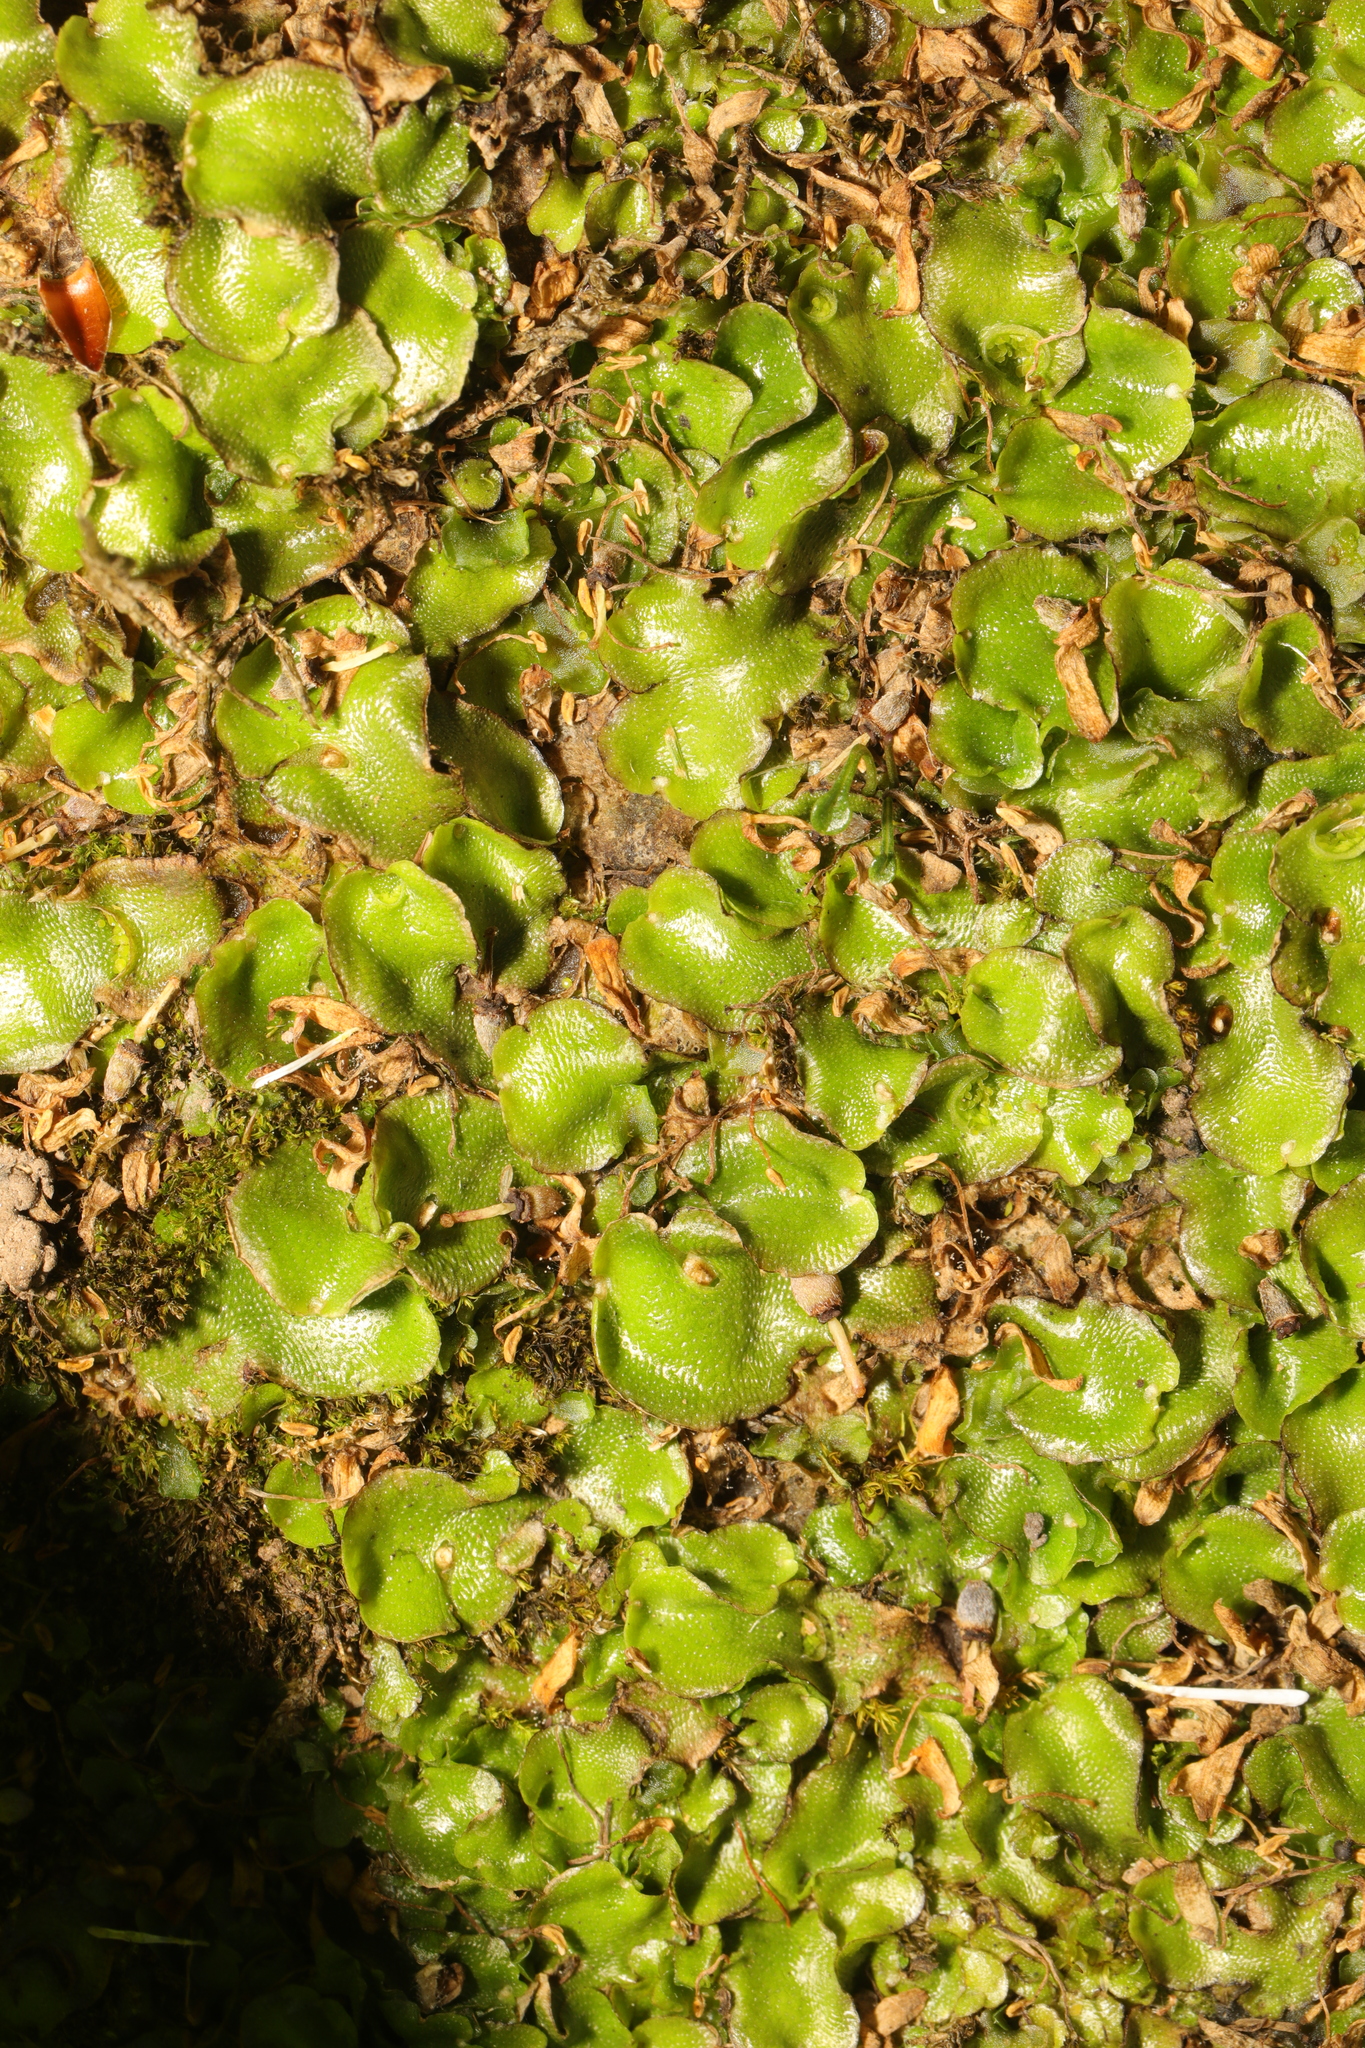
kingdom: Plantae
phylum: Marchantiophyta
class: Marchantiopsida
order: Lunulariales
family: Lunulariaceae
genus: Lunularia
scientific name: Lunularia cruciata
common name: Crescent-cup liverwort
